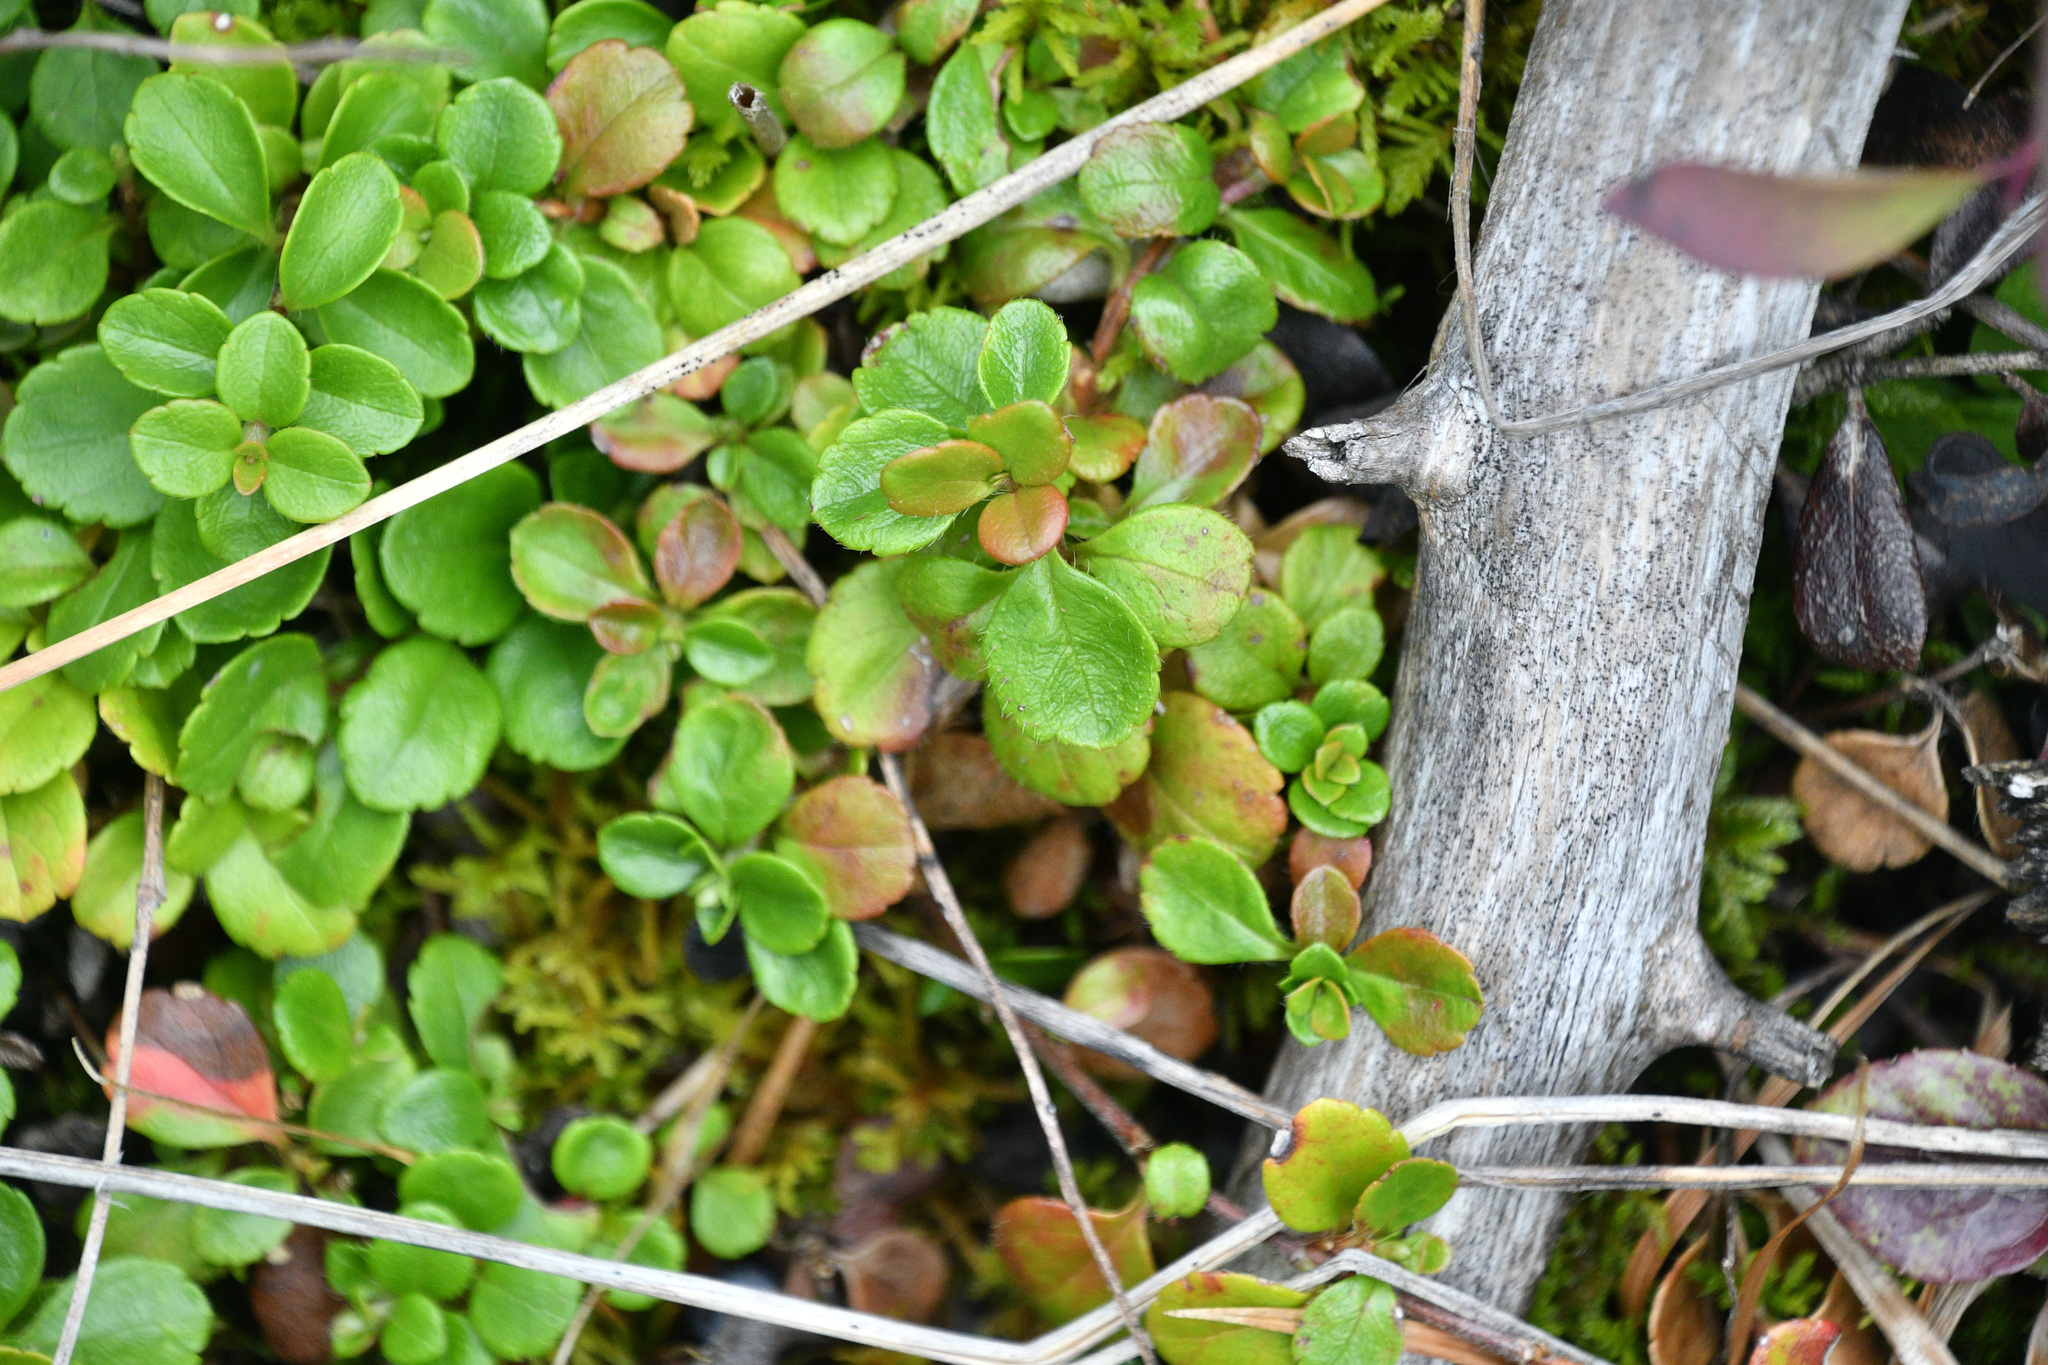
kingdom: Plantae
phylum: Tracheophyta
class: Magnoliopsida
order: Dipsacales
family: Caprifoliaceae
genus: Linnaea
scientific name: Linnaea borealis
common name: Twinflower
